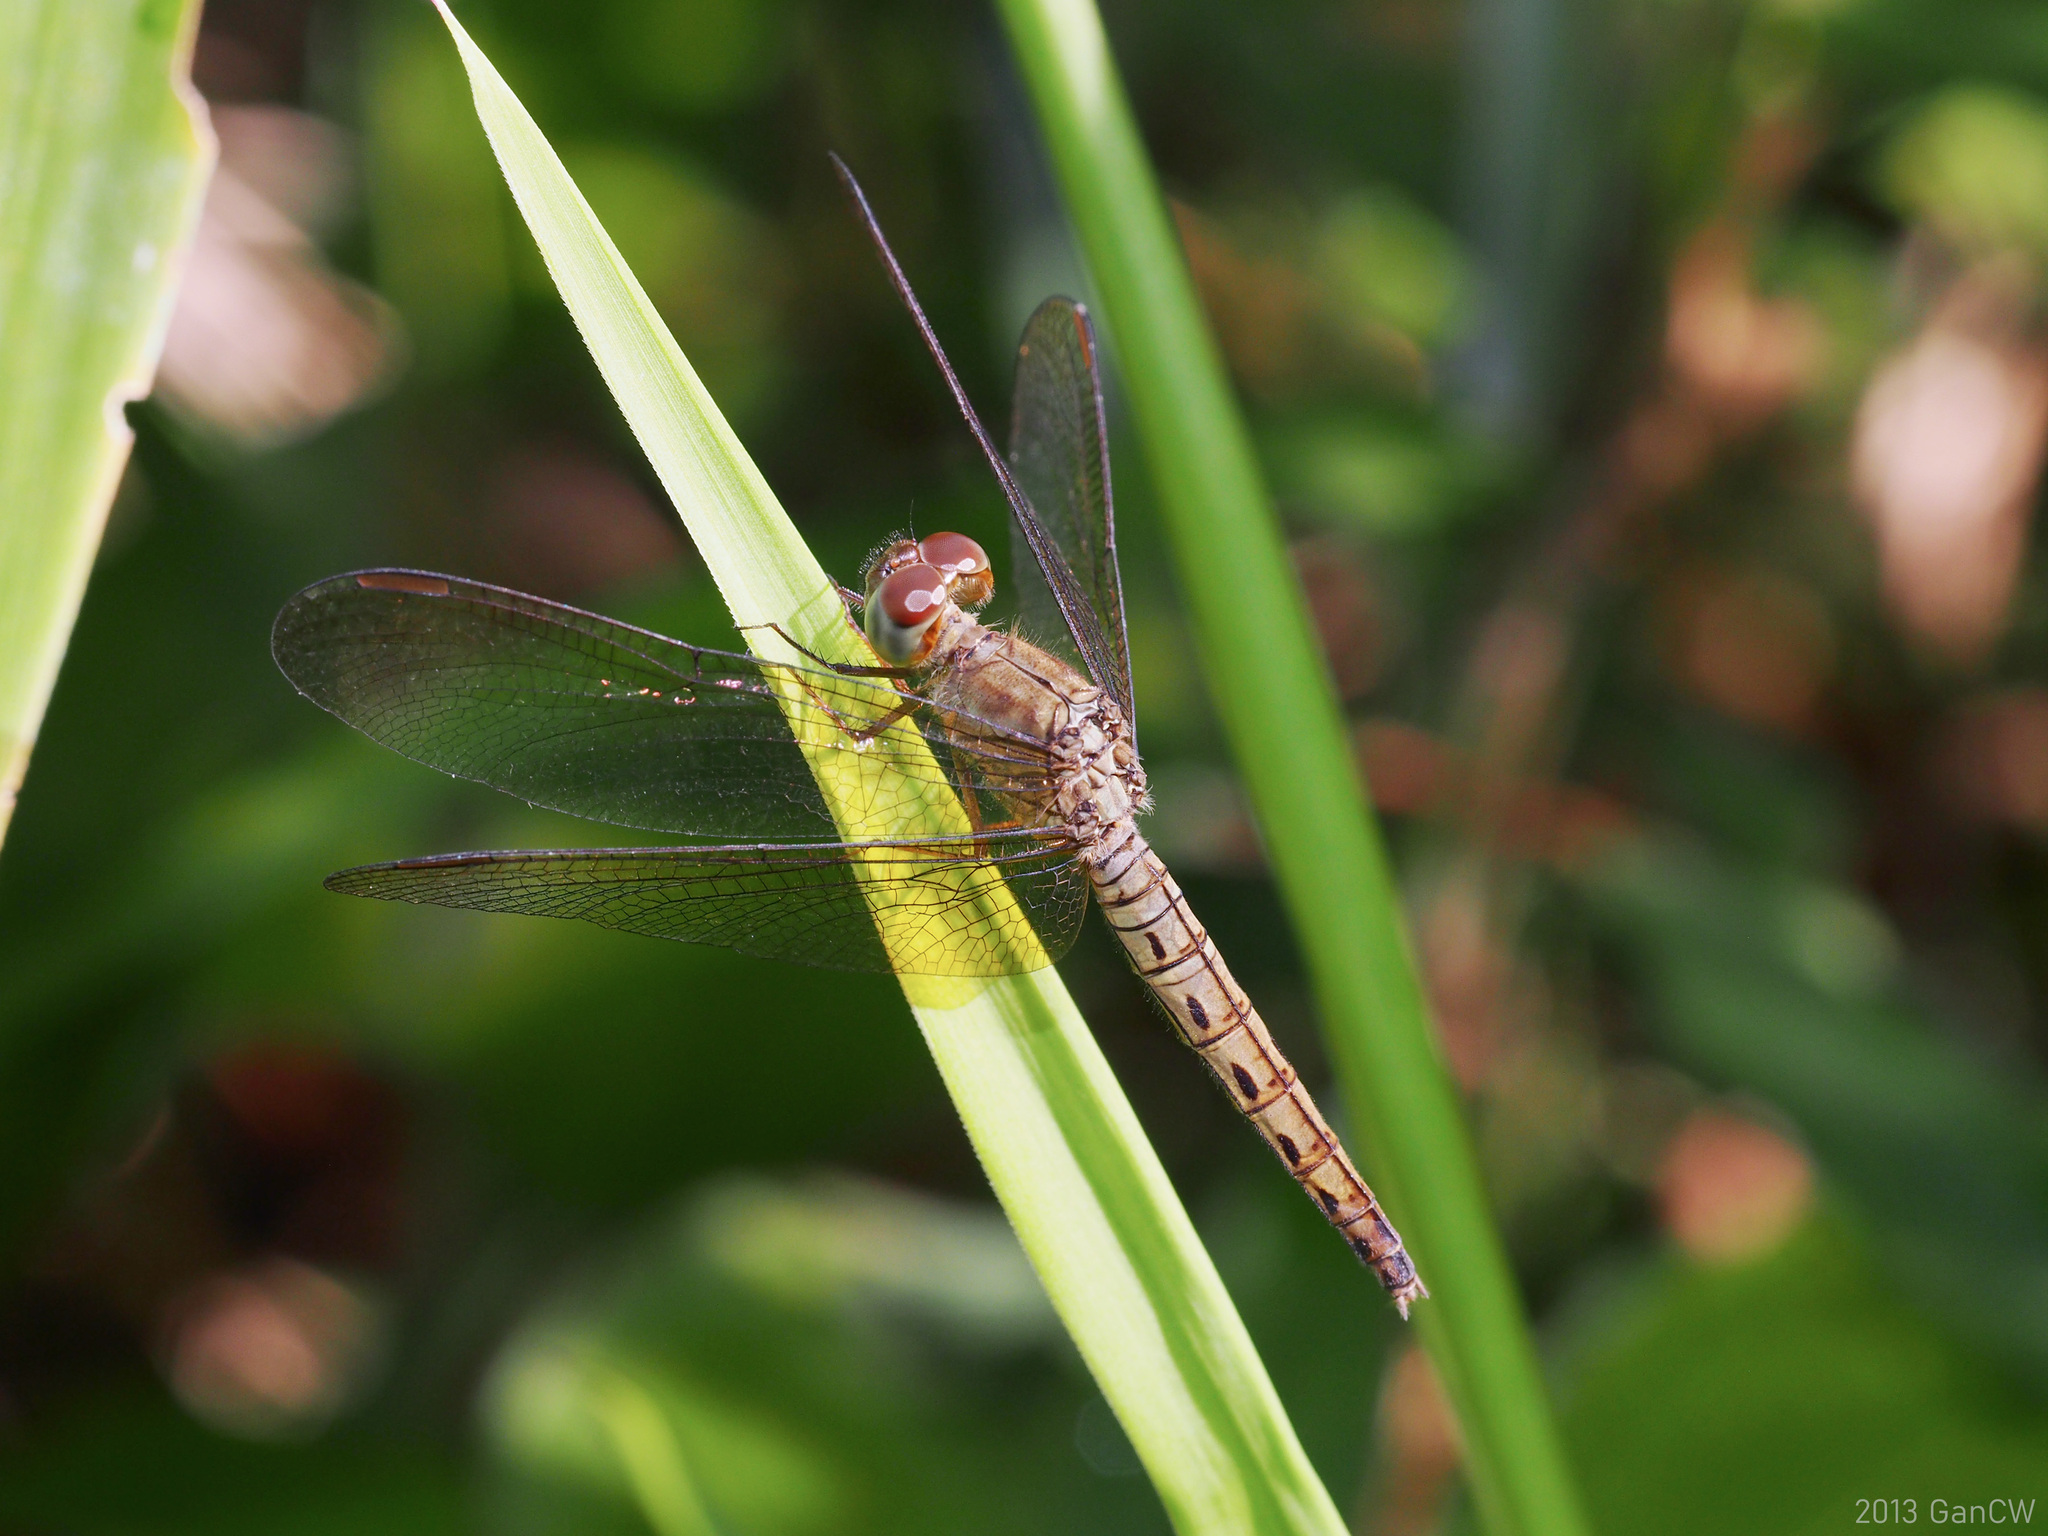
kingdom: Animalia
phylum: Arthropoda
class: Insecta
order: Odonata
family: Libellulidae
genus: Neurothemis
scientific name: Neurothemis fluctuans
